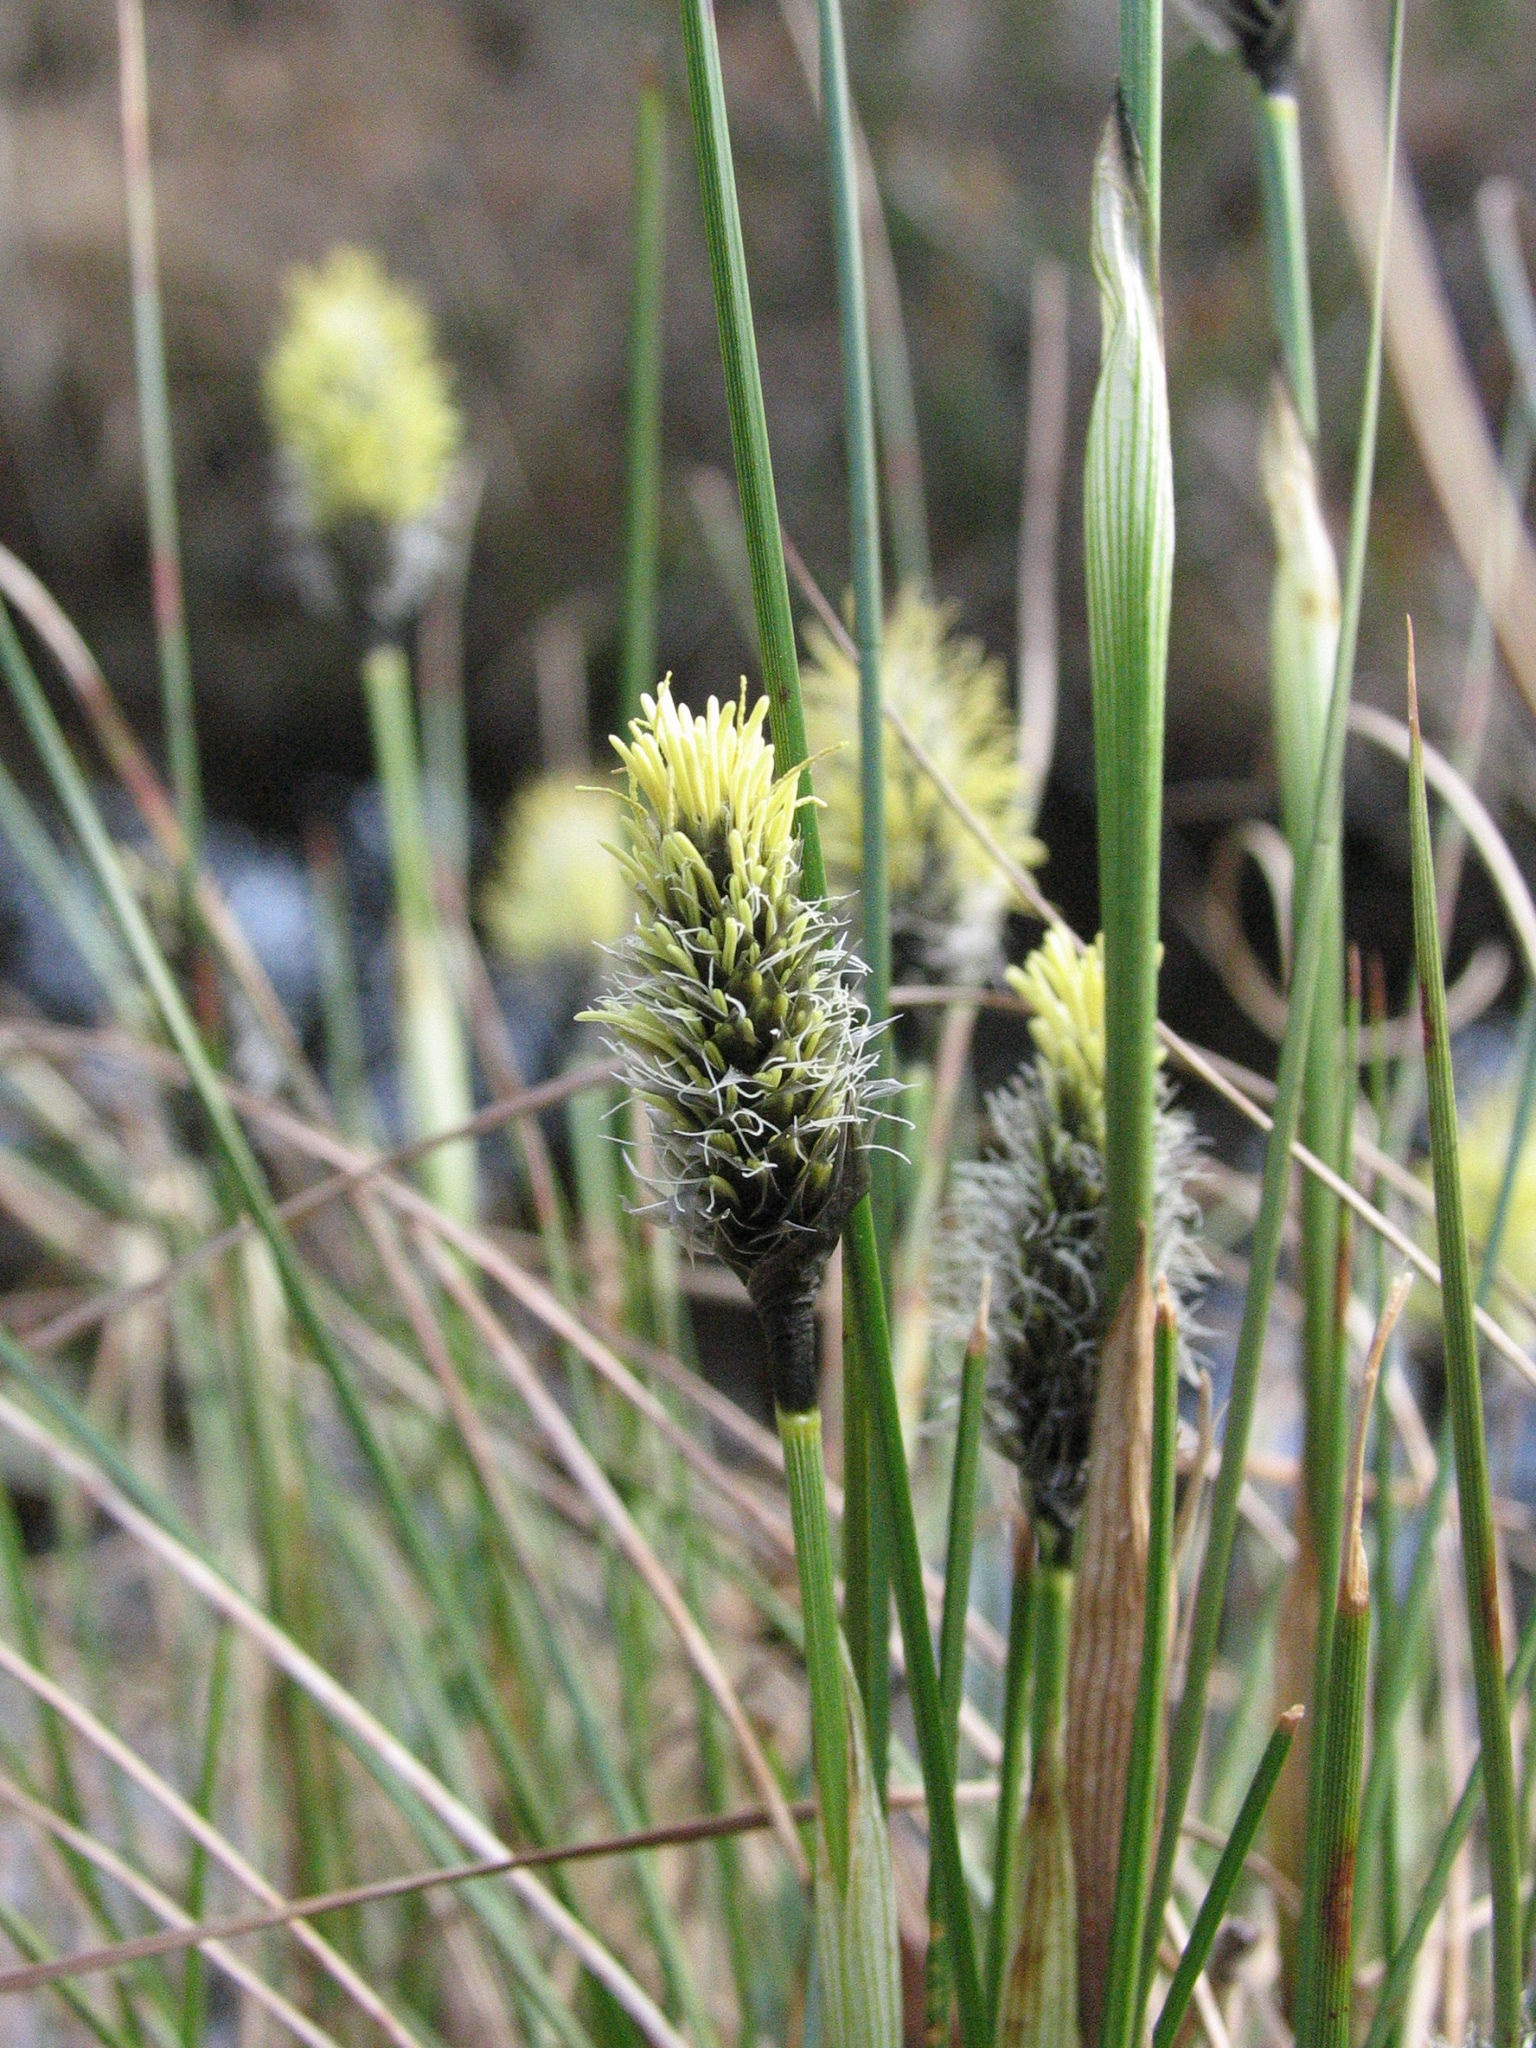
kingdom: Plantae
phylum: Tracheophyta
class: Liliopsida
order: Poales
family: Cyperaceae
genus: Eriophorum
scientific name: Eriophorum vaginatum
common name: Hare's-tail cottongrass
